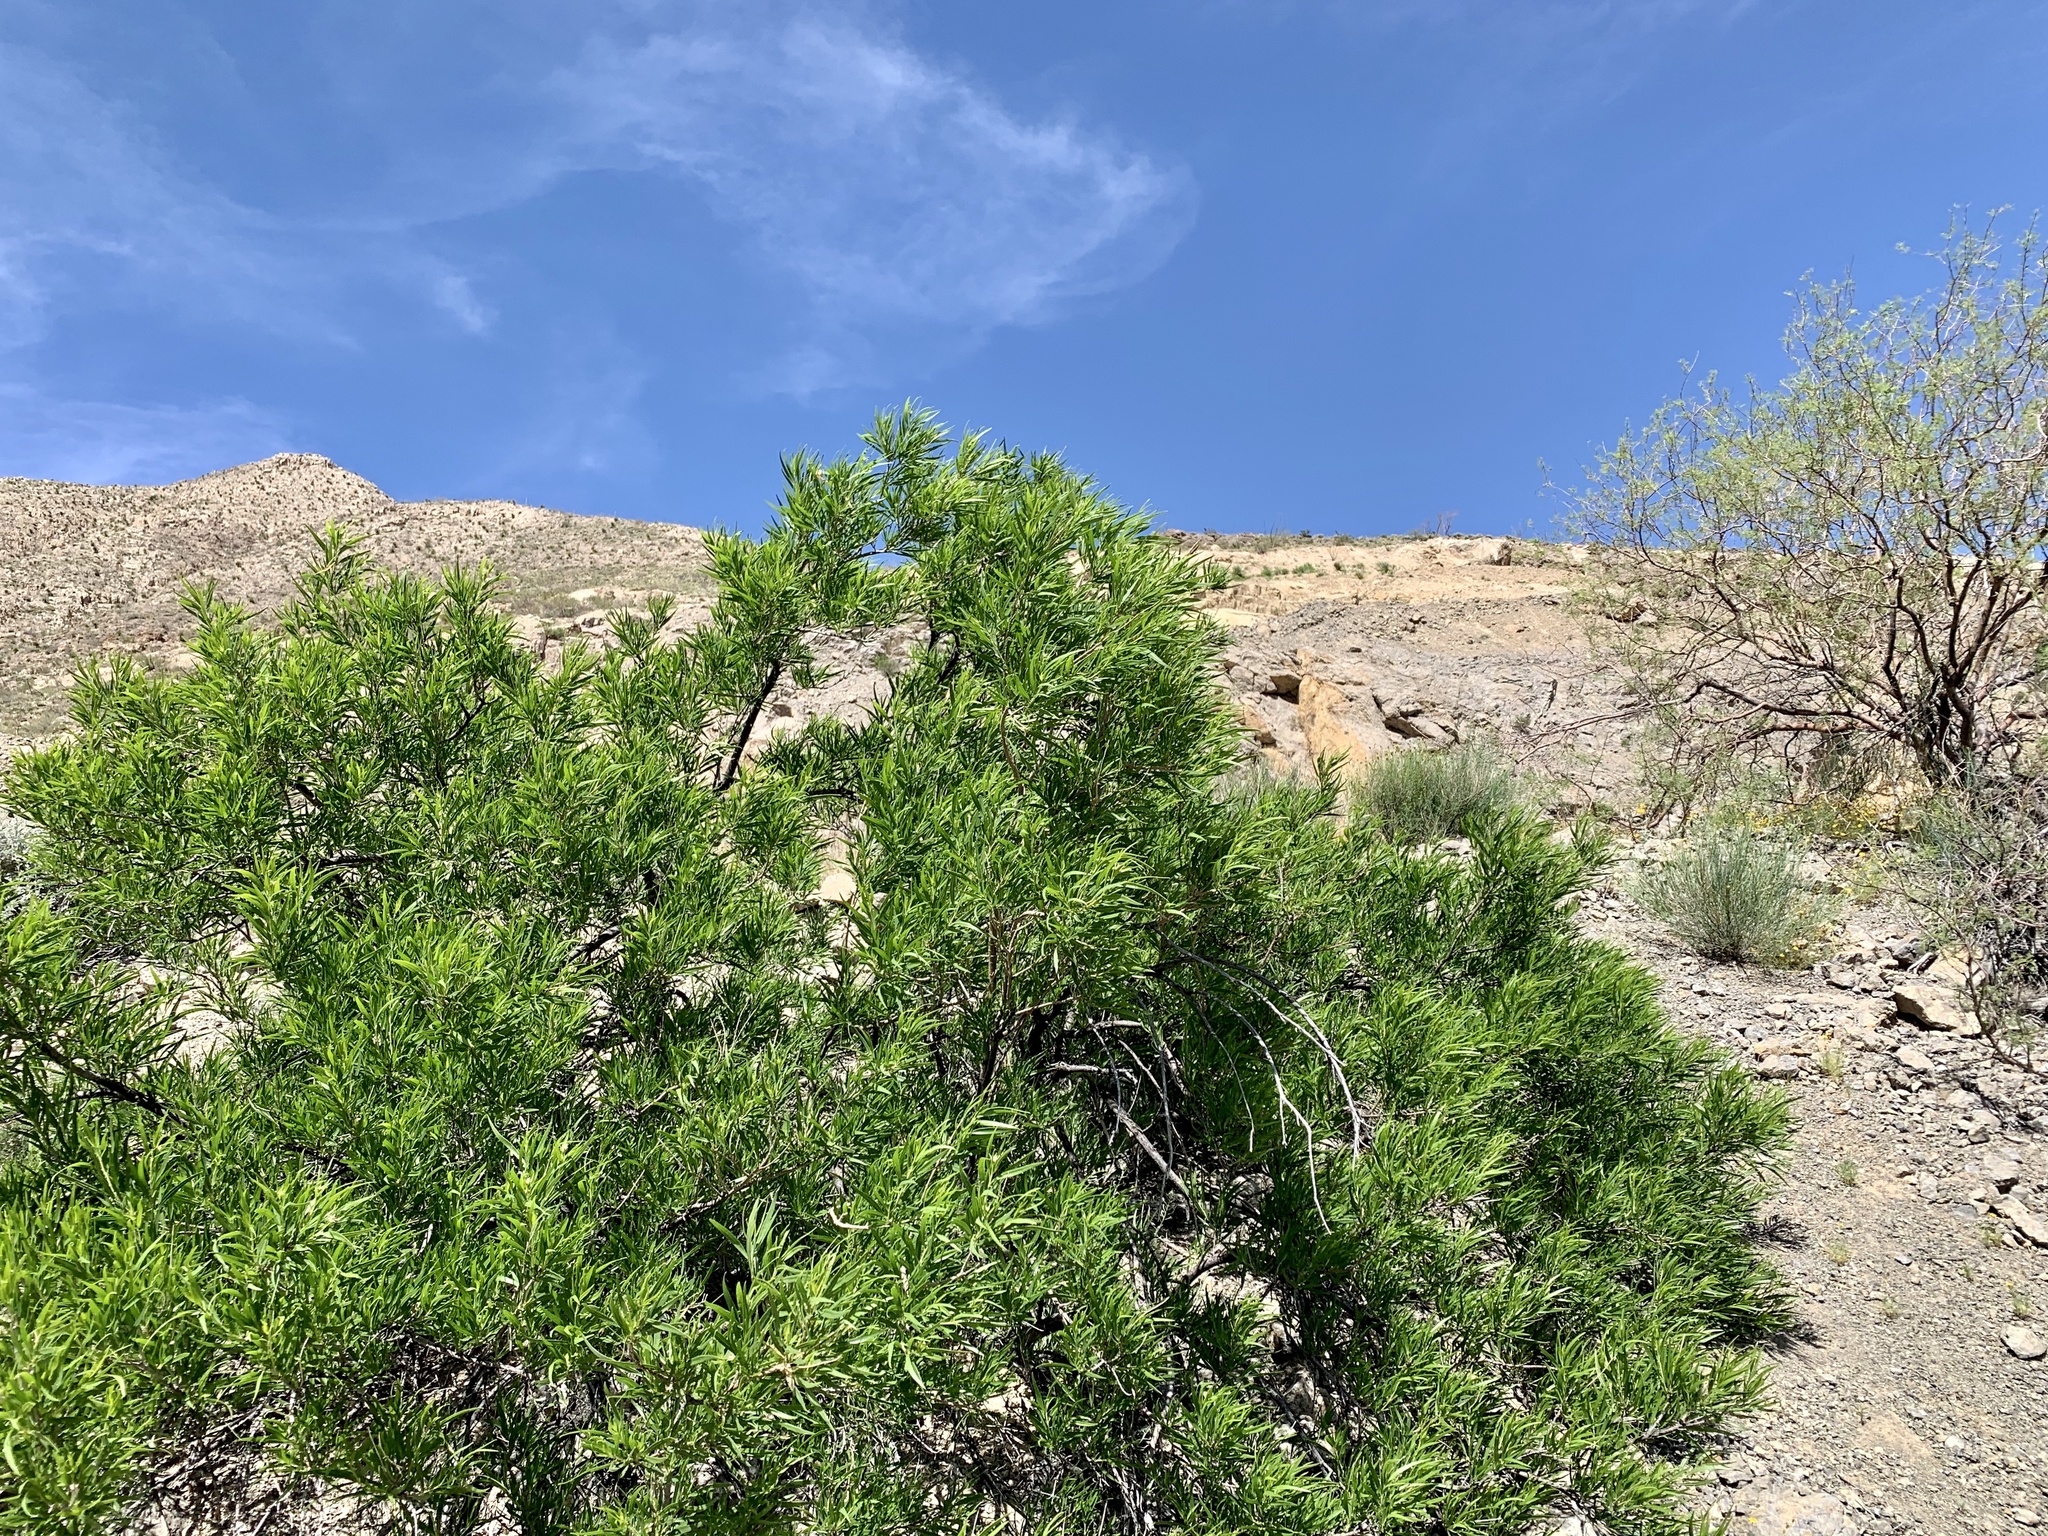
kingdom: Plantae
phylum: Tracheophyta
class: Magnoliopsida
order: Lamiales
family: Bignoniaceae
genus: Chilopsis
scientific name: Chilopsis linearis
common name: Desert-willow
